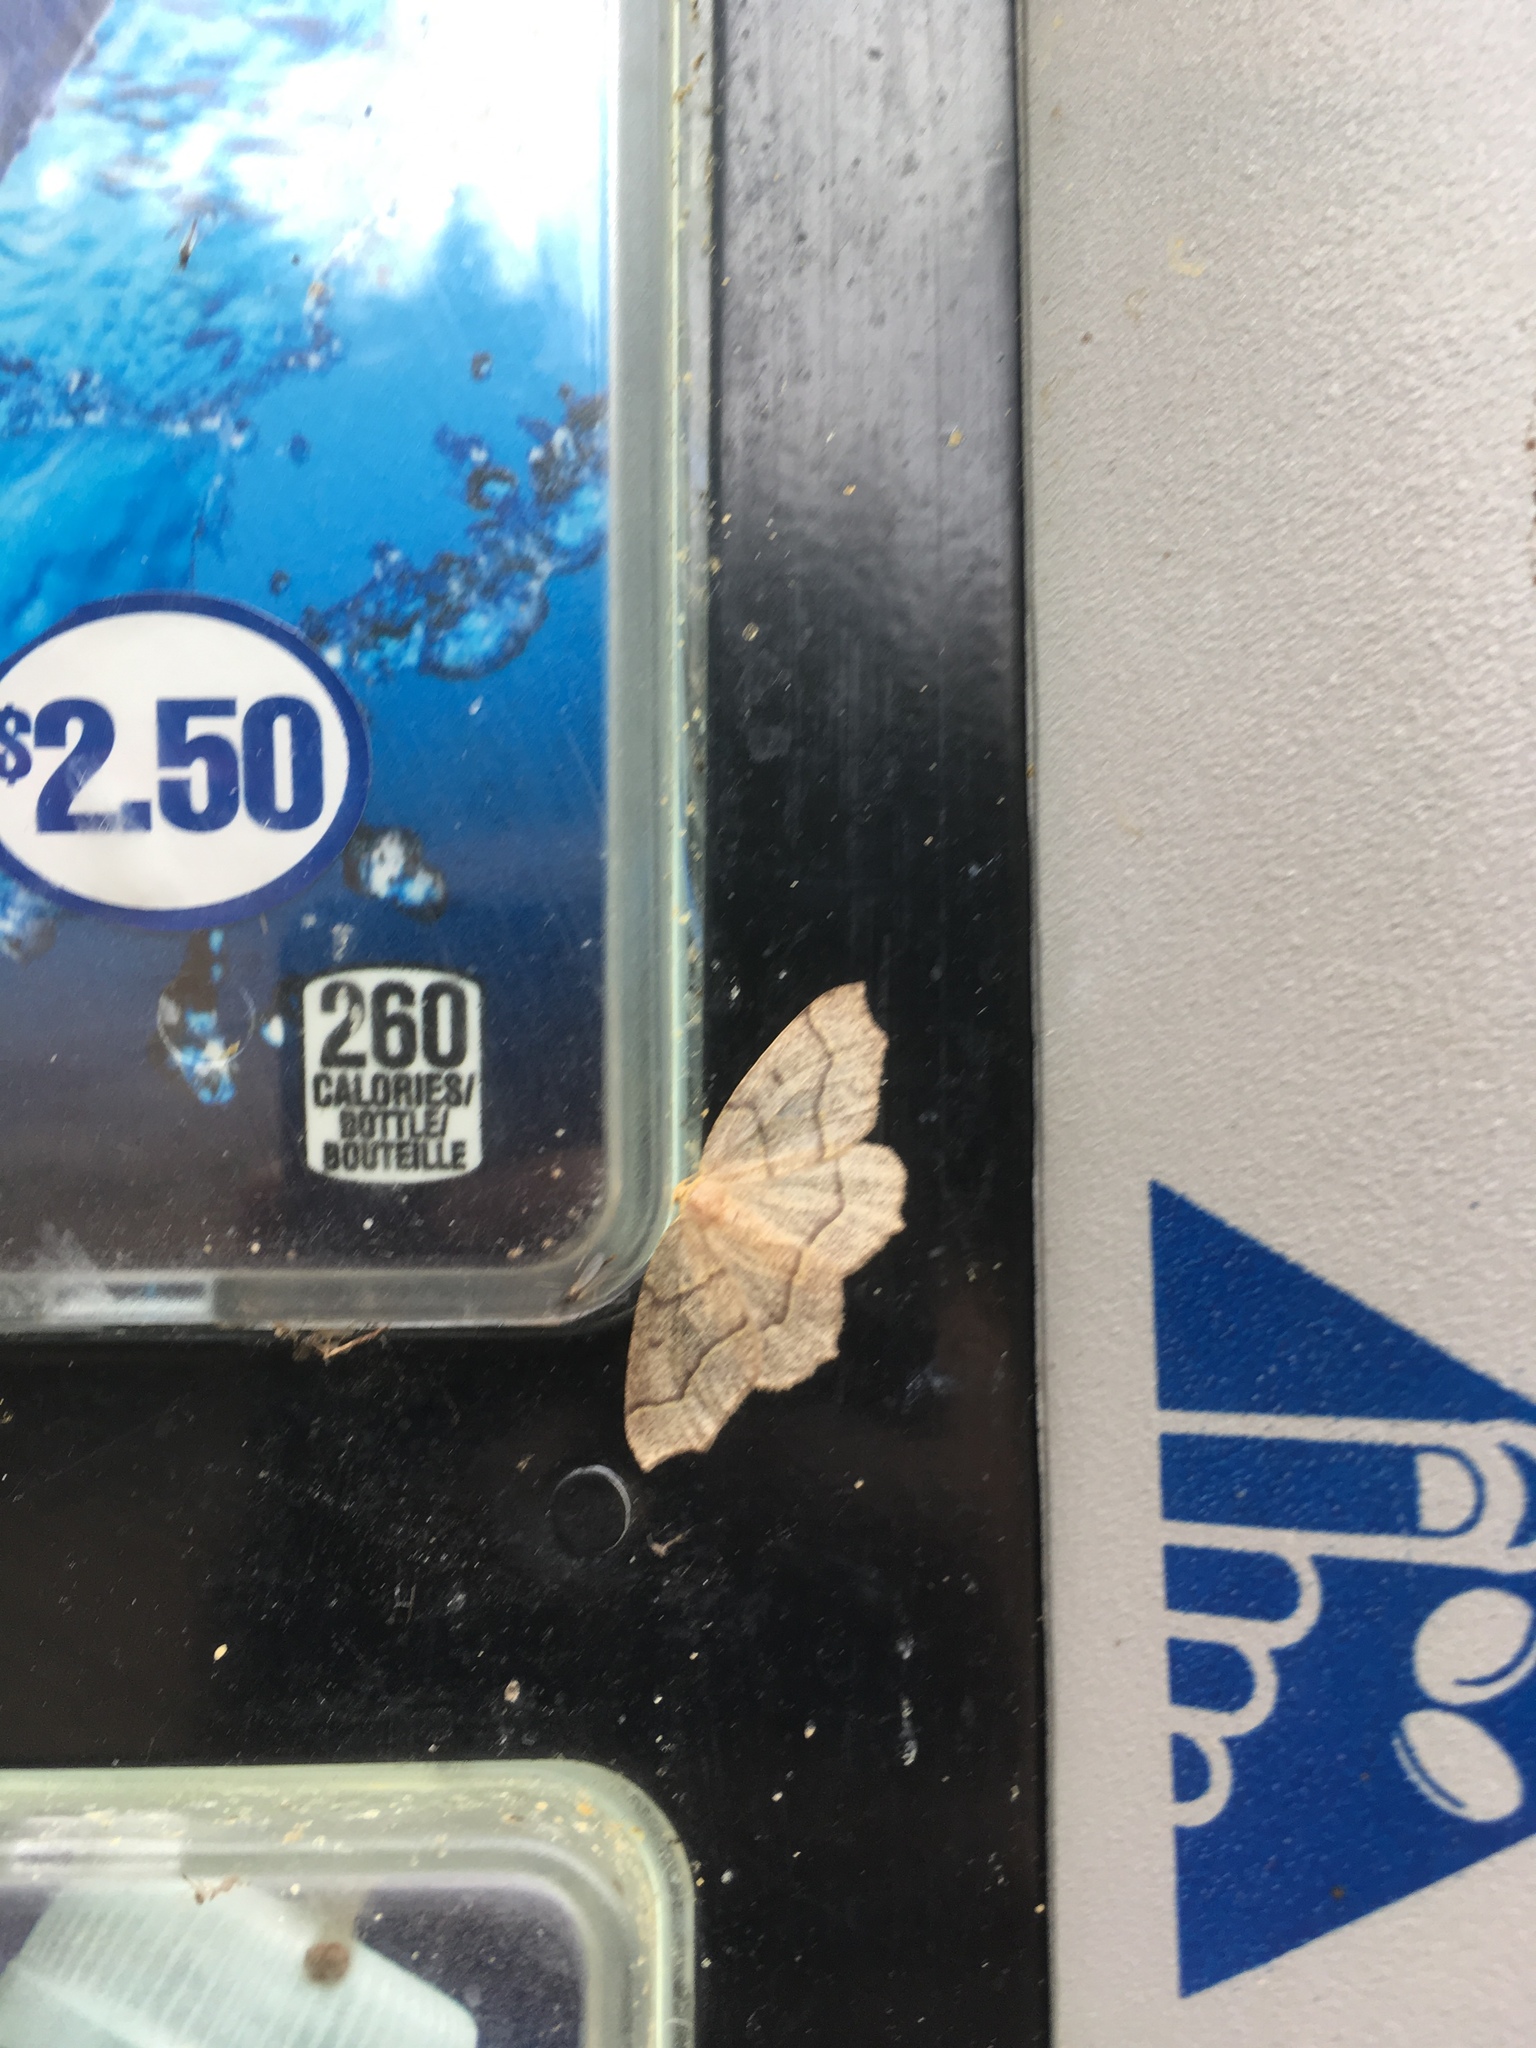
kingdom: Animalia
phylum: Arthropoda
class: Insecta
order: Lepidoptera
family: Geometridae
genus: Lambdina
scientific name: Lambdina fiscellaria
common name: Hemlock looper
